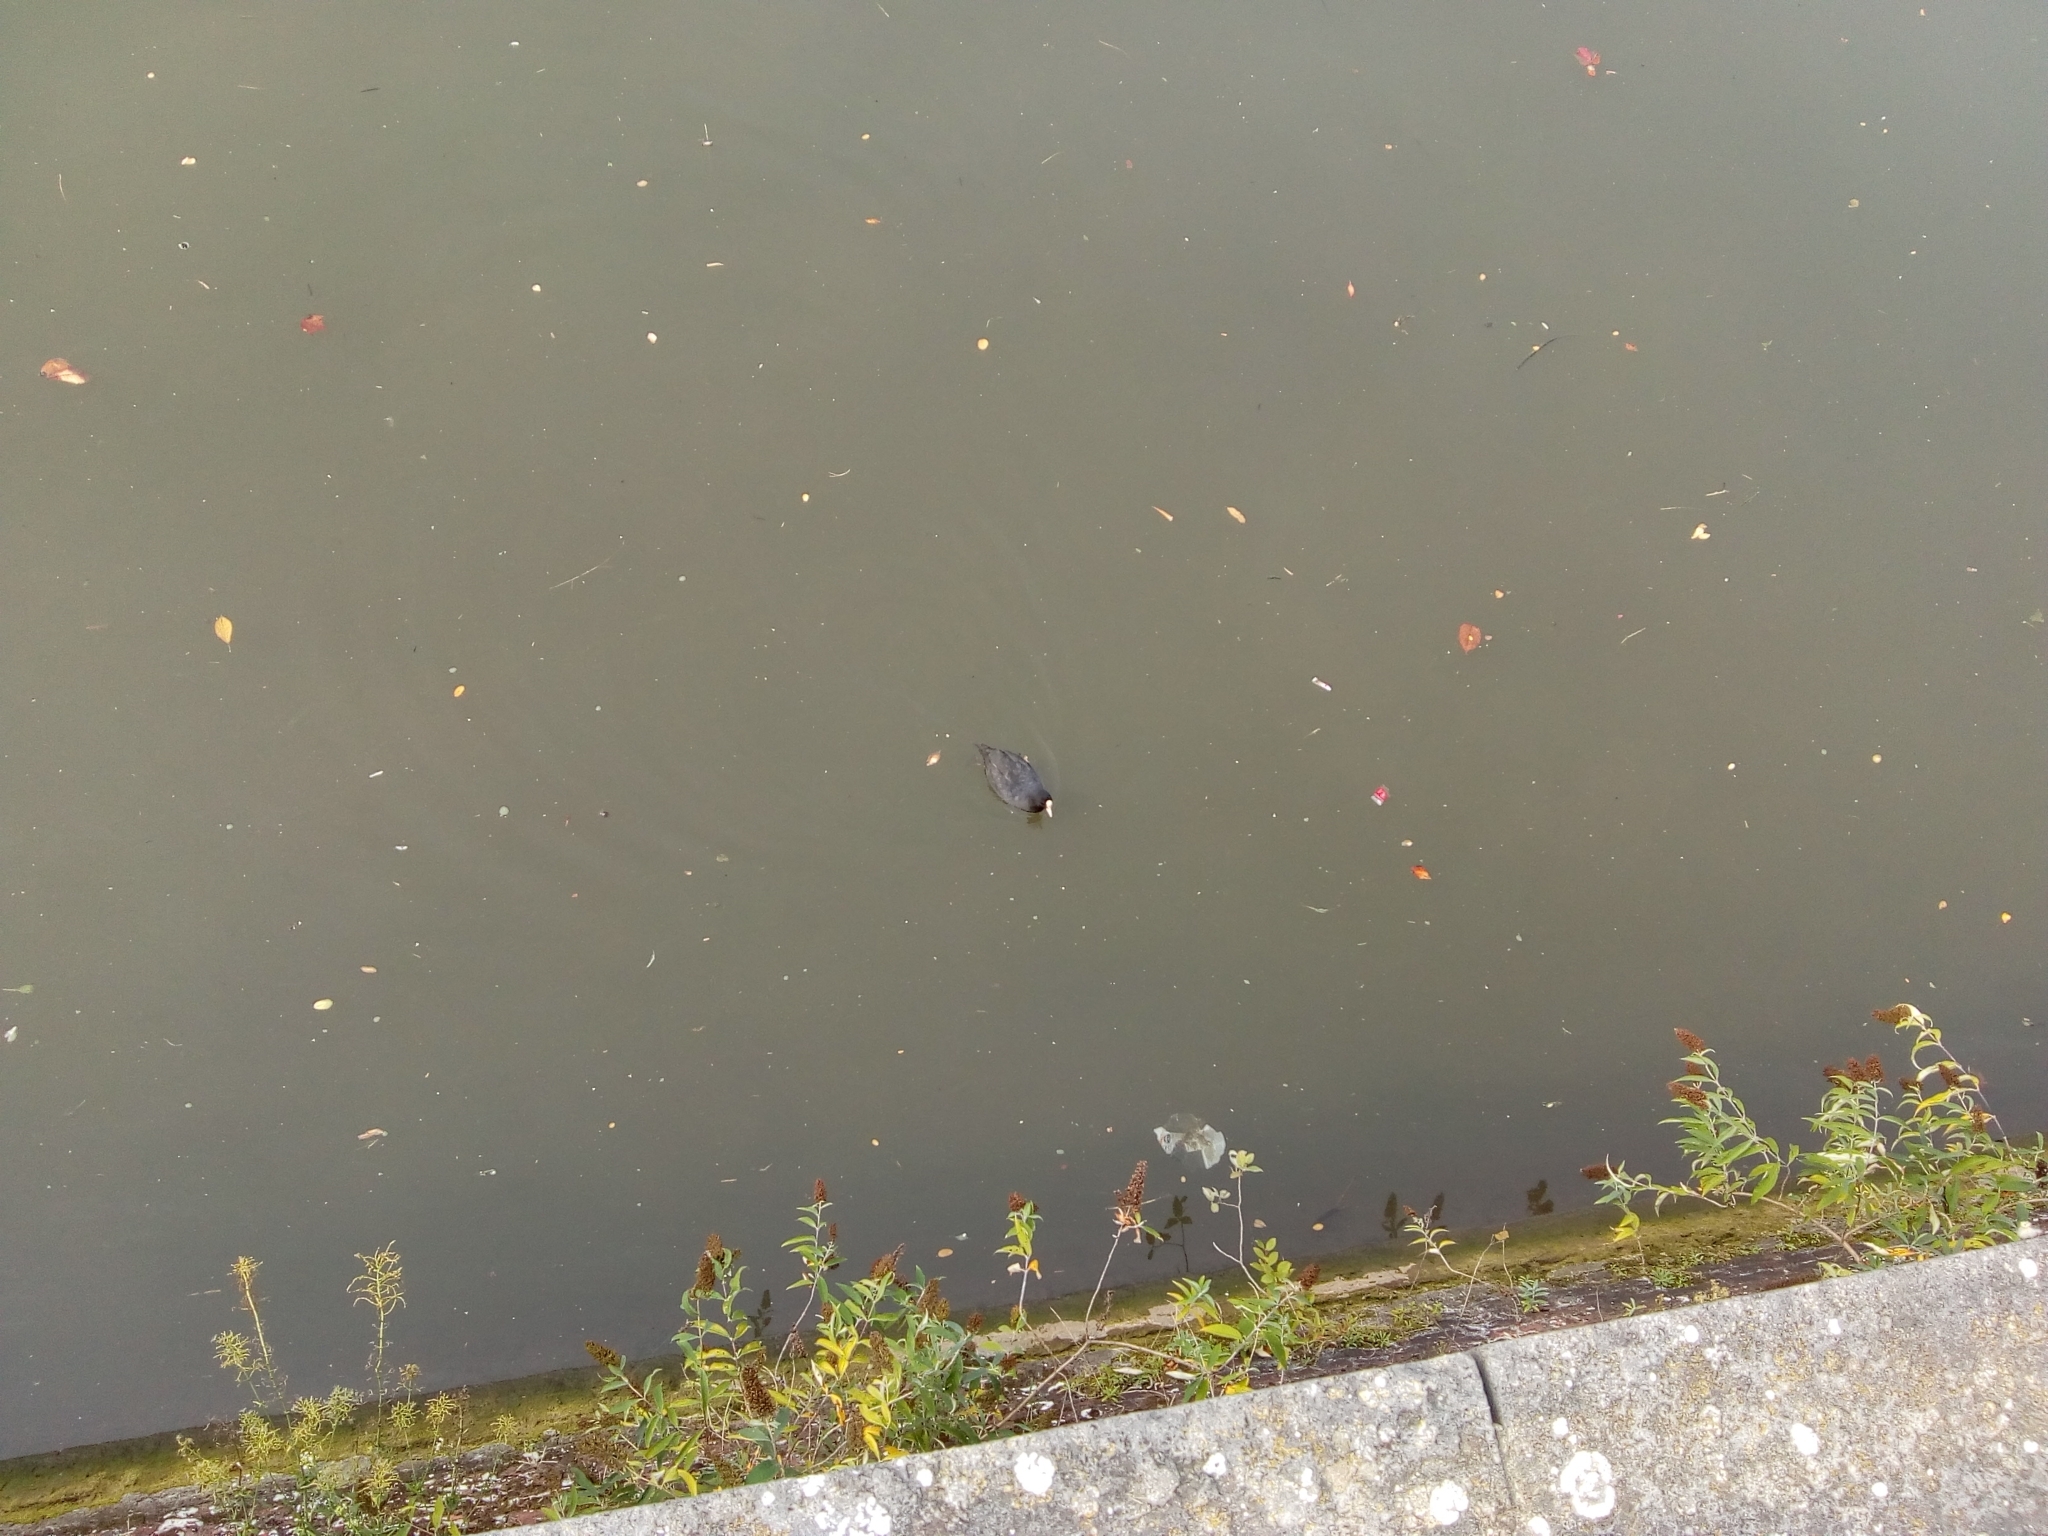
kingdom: Animalia
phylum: Chordata
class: Aves
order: Gruiformes
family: Rallidae
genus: Fulica
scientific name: Fulica atra
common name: Eurasian coot
